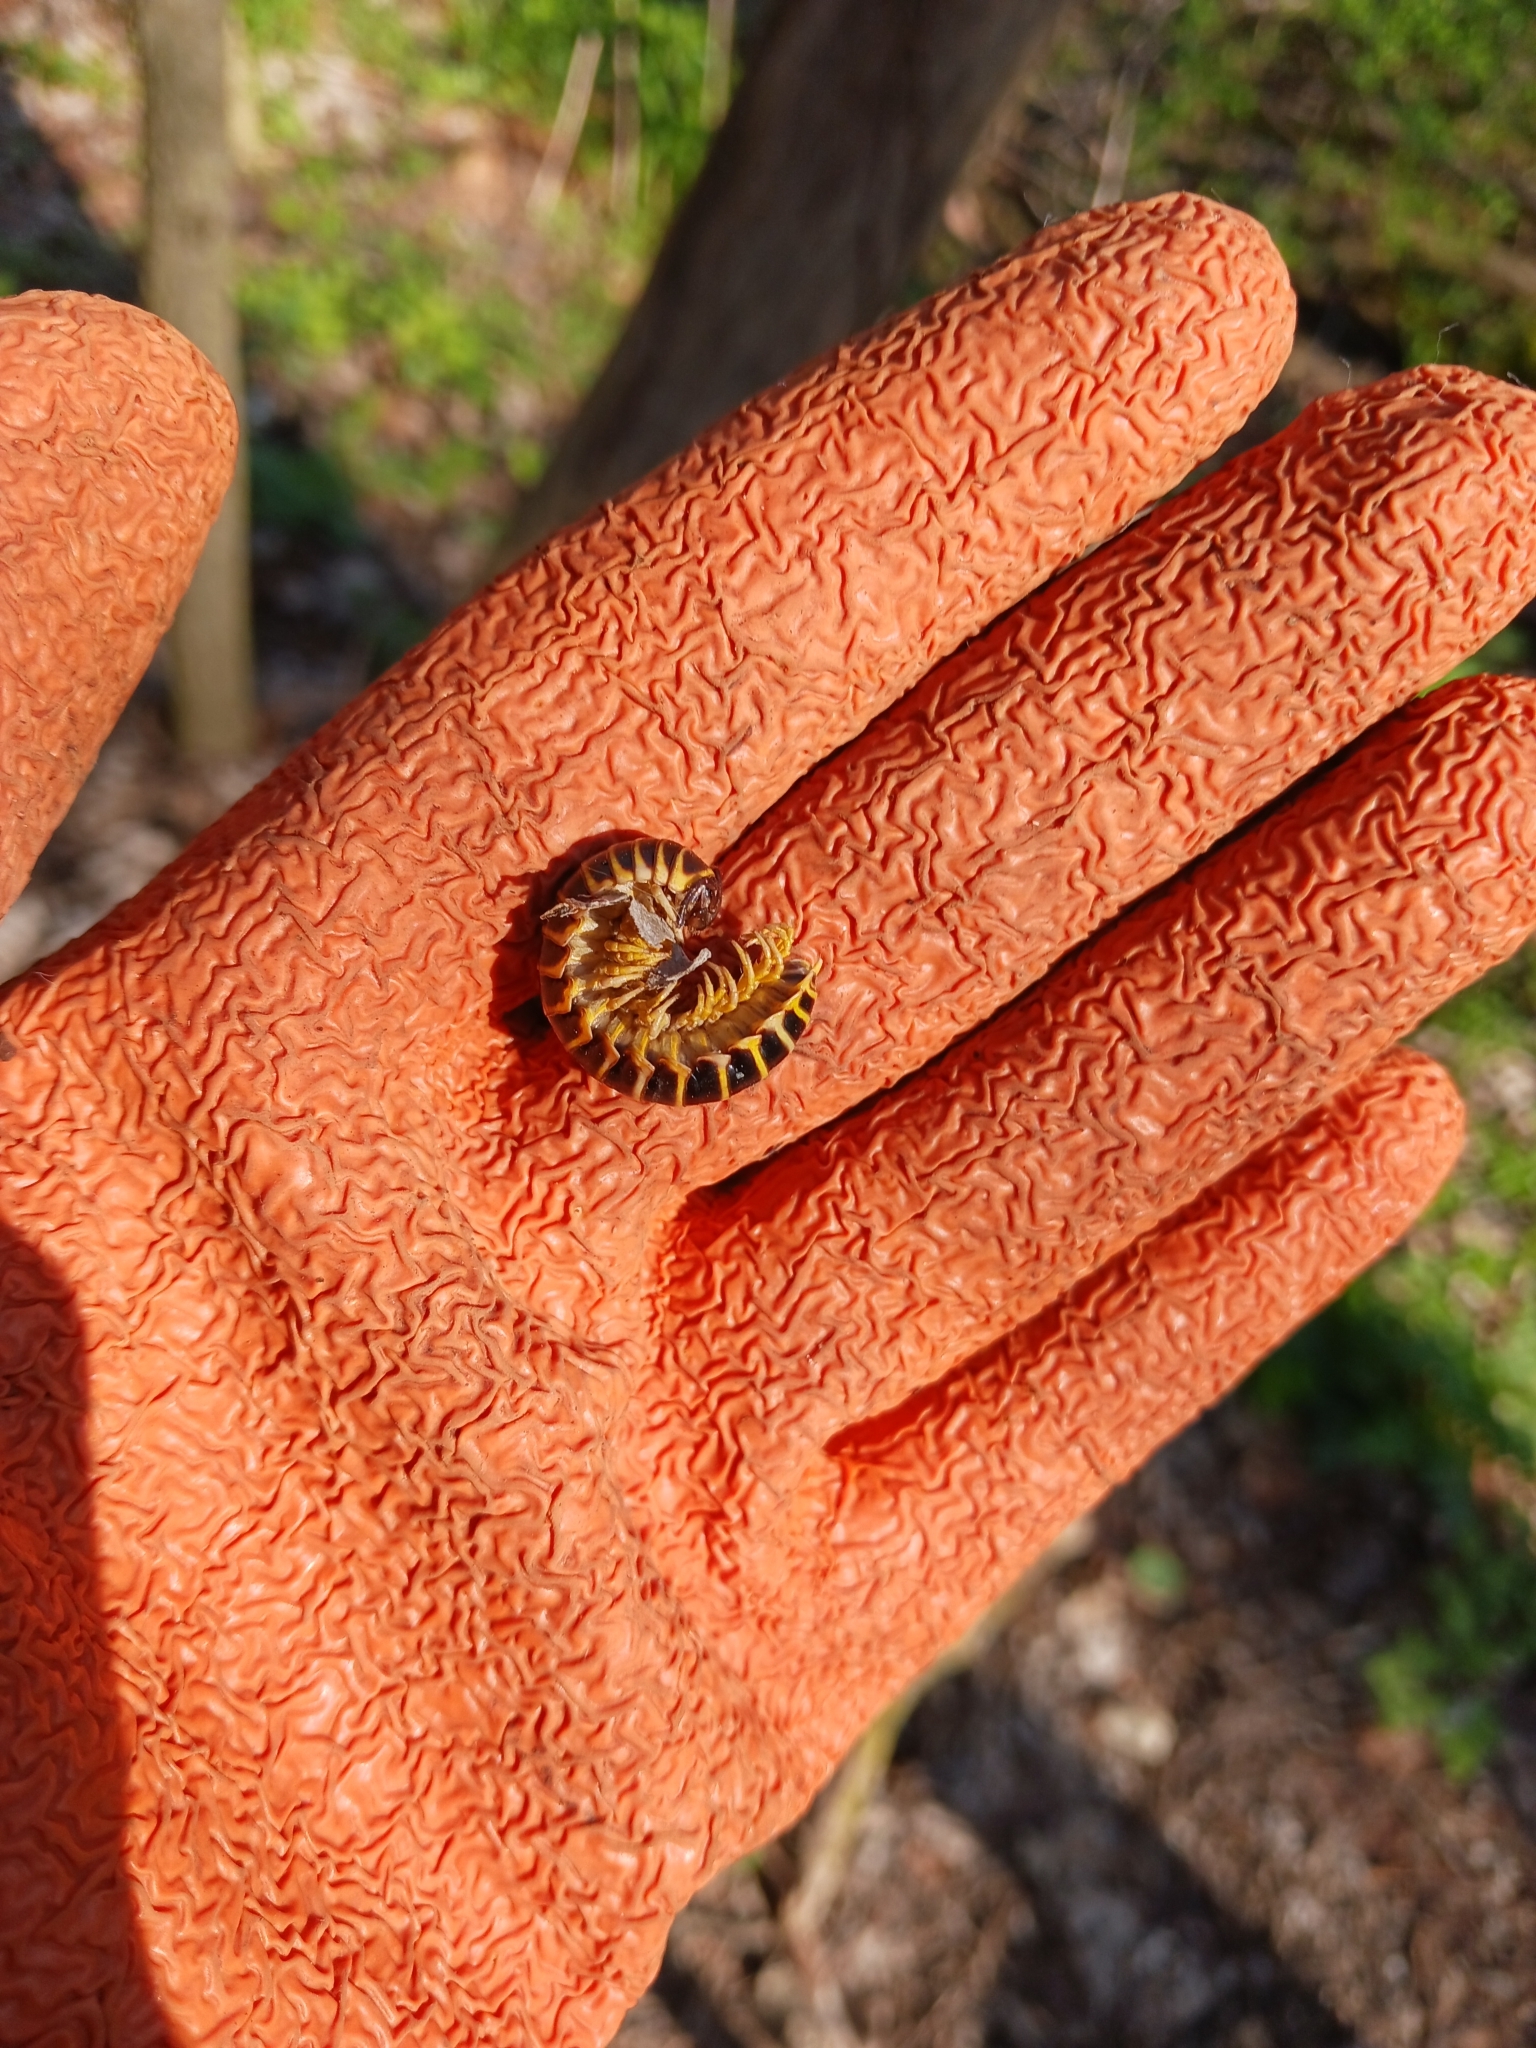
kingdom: Animalia
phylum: Arthropoda
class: Diplopoda
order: Polydesmida
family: Xystodesmidae
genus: Apheloria
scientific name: Apheloria virginiensis
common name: Black-and-gold flat millipede
